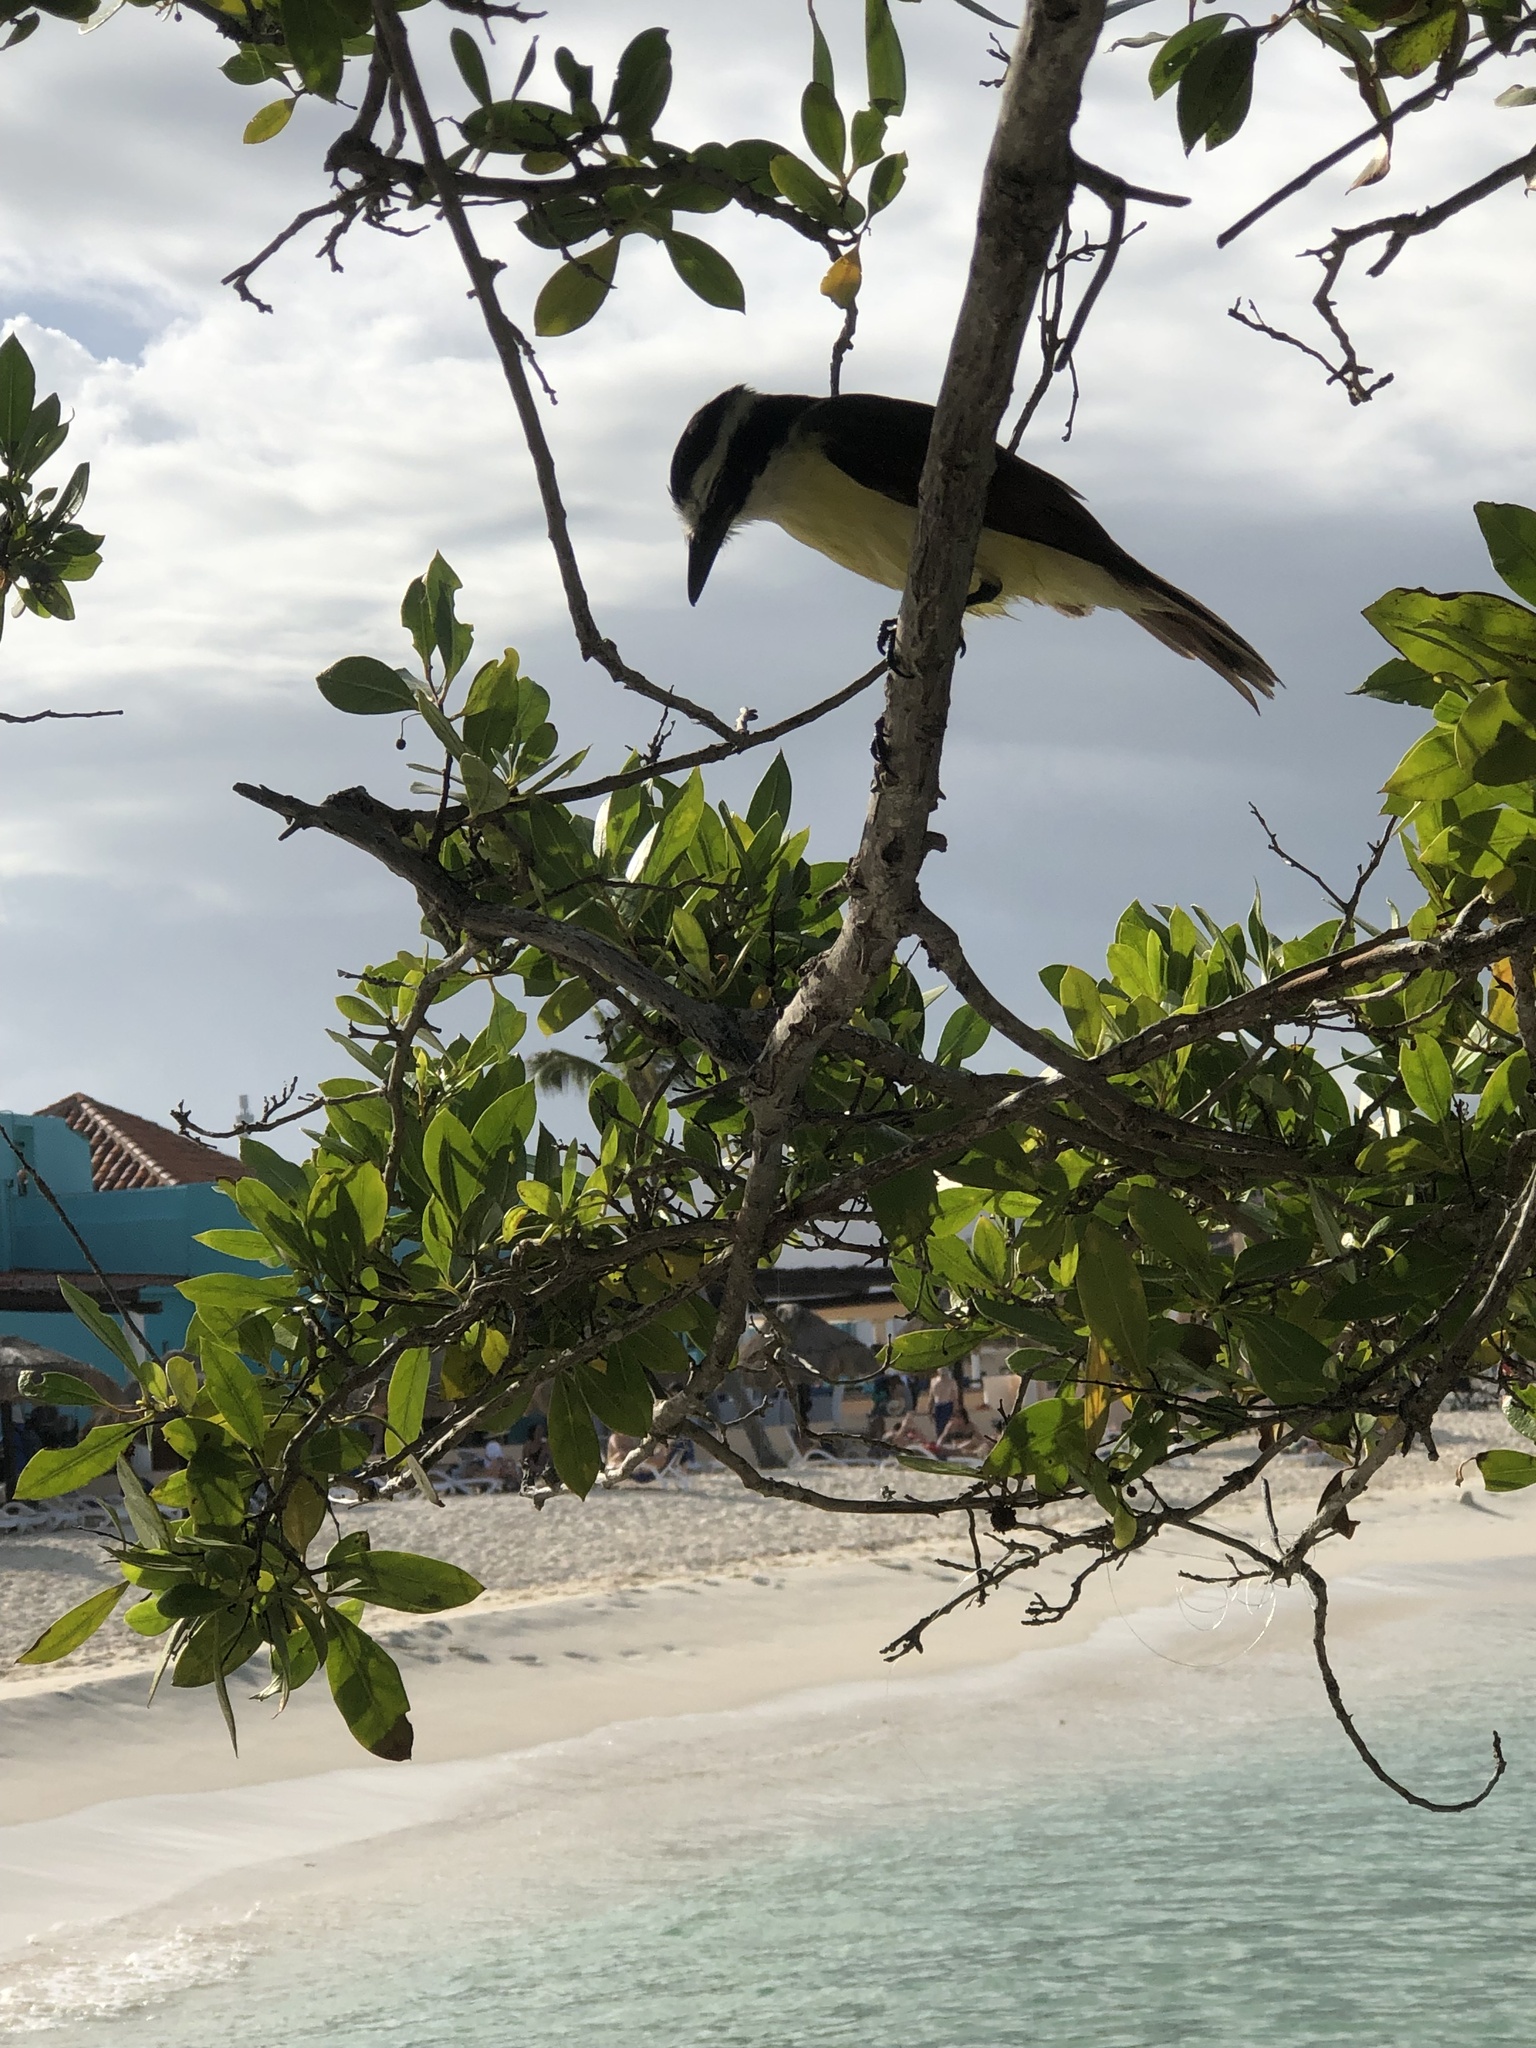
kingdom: Animalia
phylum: Chordata
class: Aves
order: Passeriformes
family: Tyrannidae
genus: Pitangus
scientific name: Pitangus sulphuratus
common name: Great kiskadee
